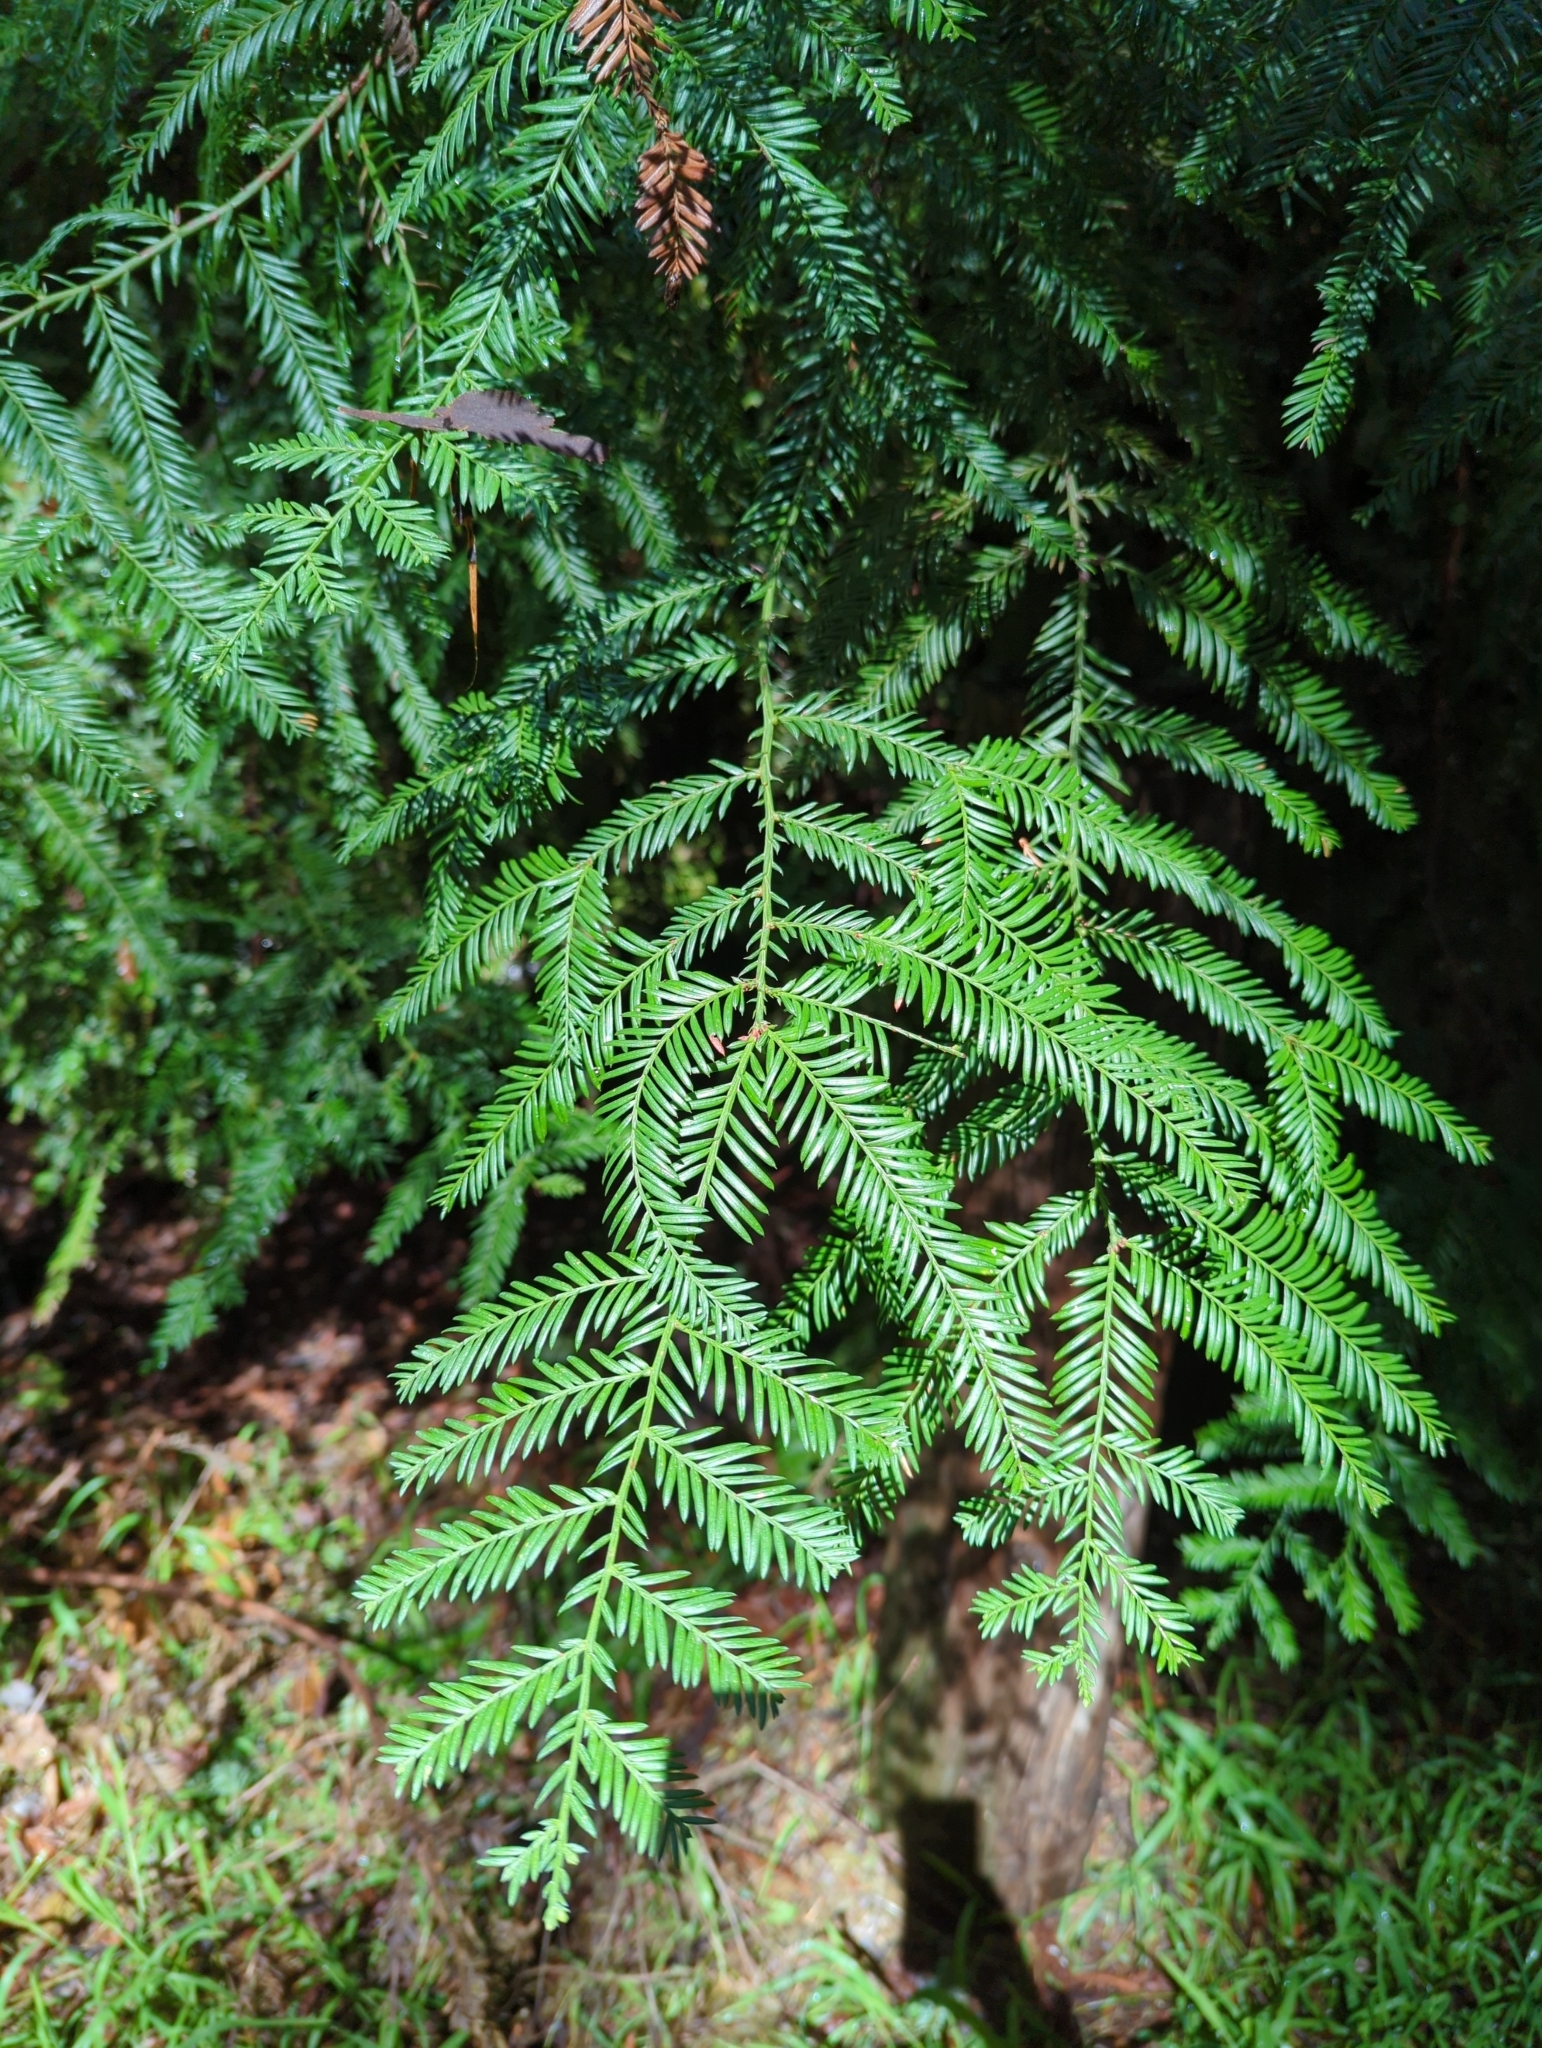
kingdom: Plantae
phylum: Tracheophyta
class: Pinopsida
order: Pinales
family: Cupressaceae
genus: Sequoia
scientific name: Sequoia sempervirens
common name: Coast redwood
